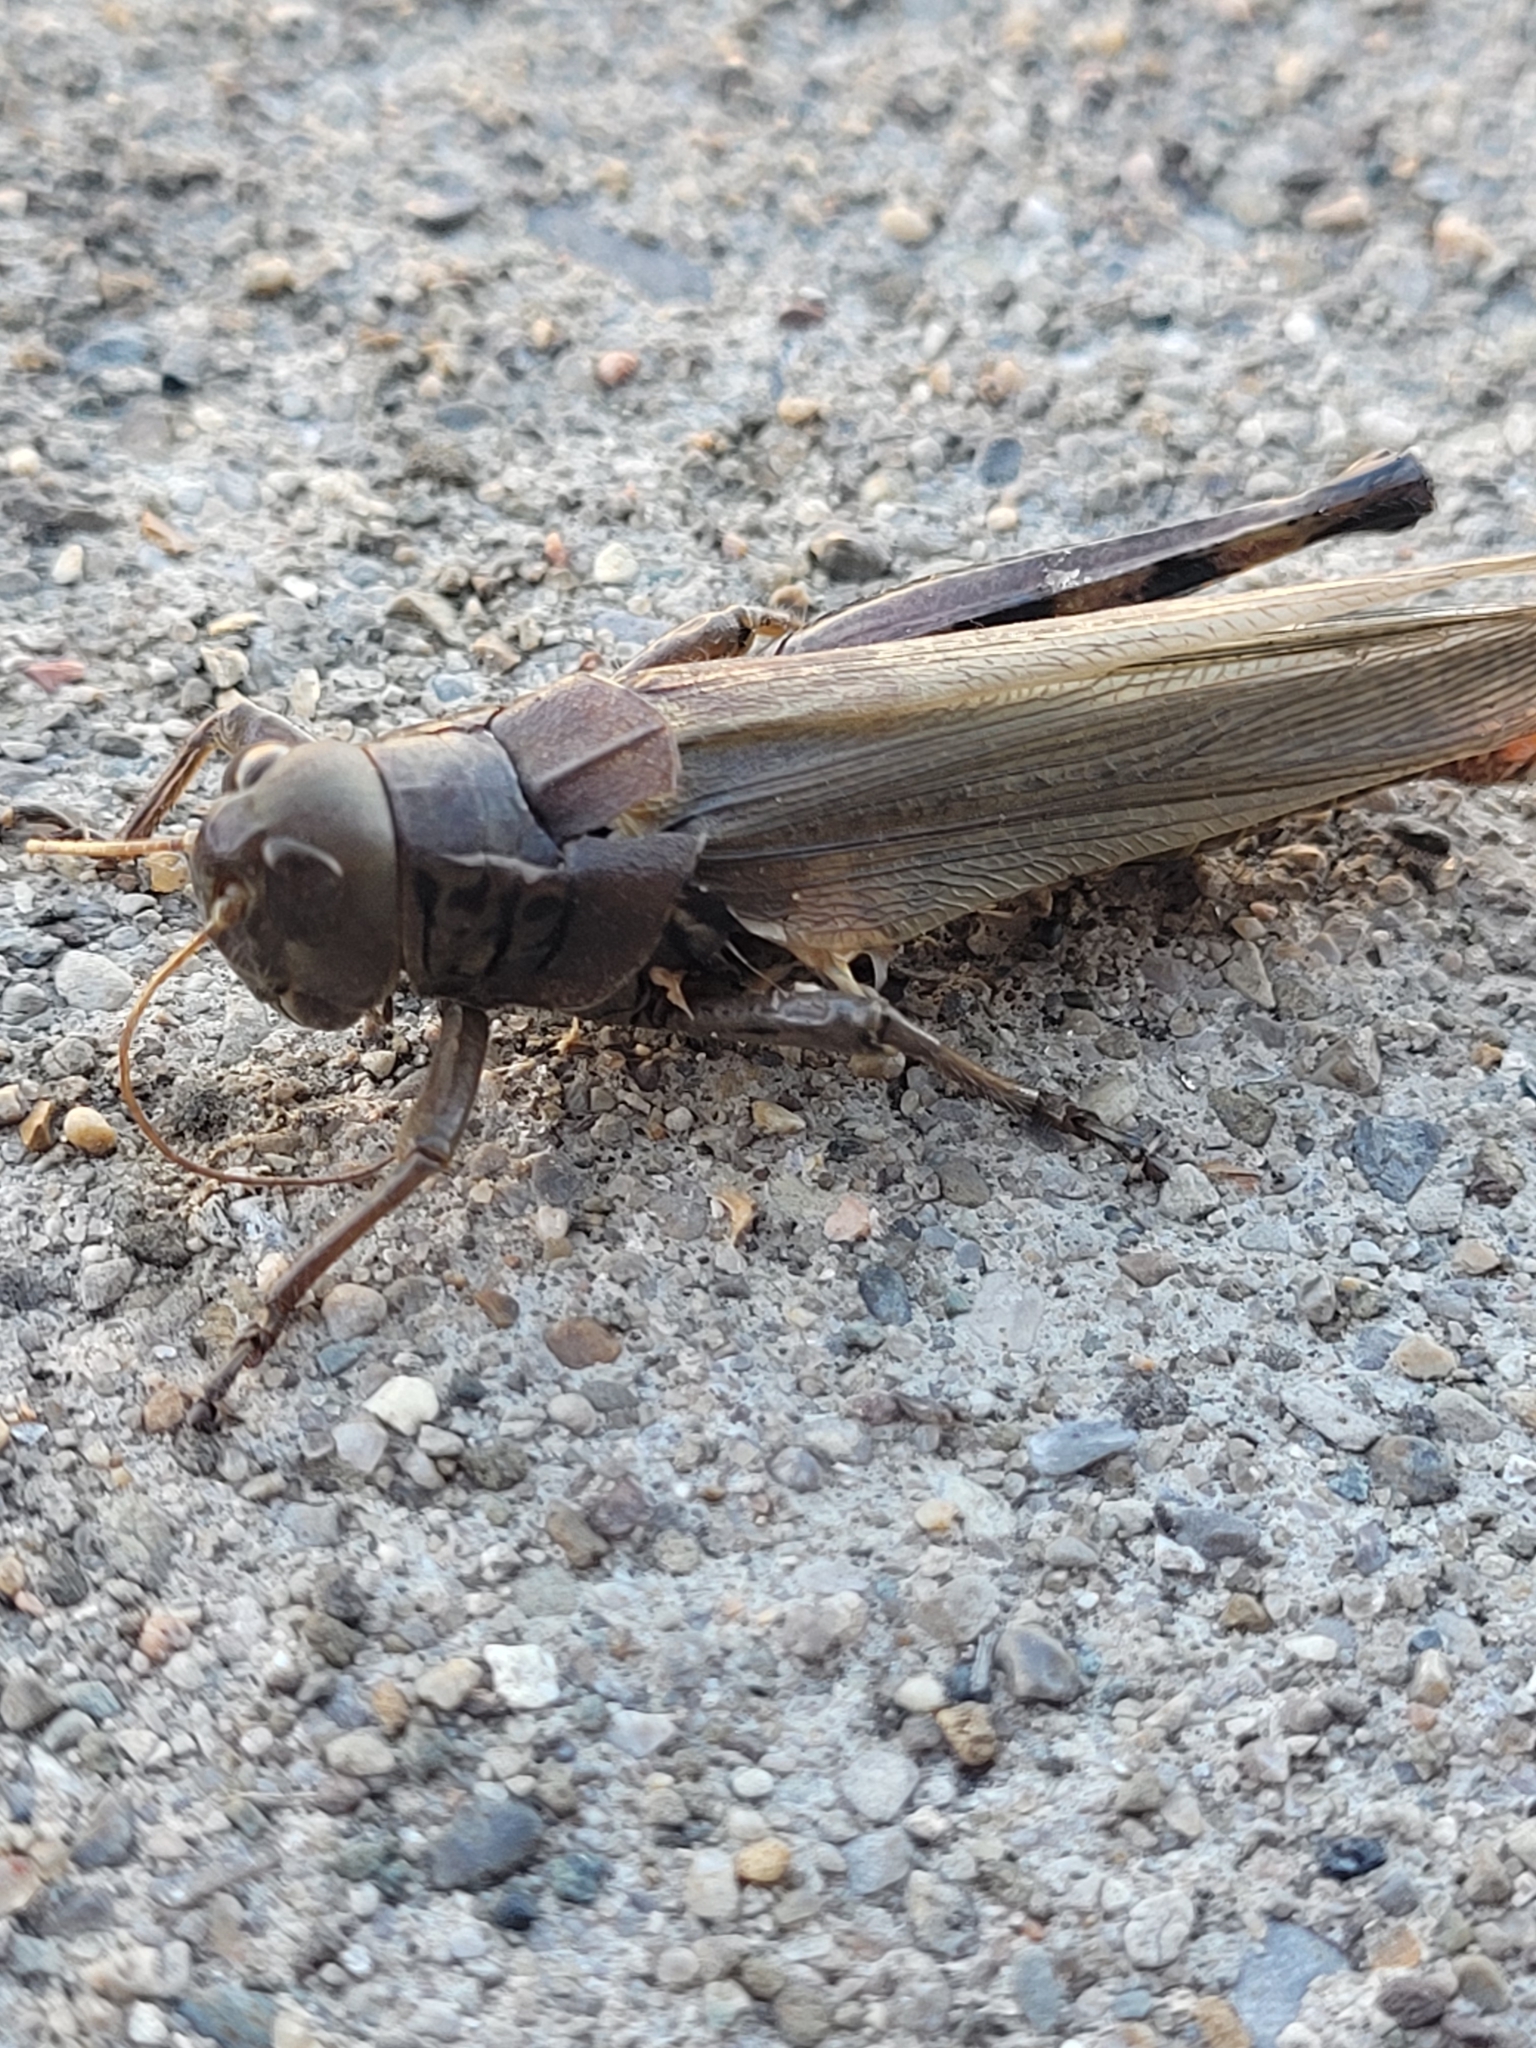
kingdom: Animalia
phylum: Arthropoda
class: Insecta
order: Orthoptera
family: Acrididae
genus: Melanoplus
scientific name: Melanoplus differentialis
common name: Differential grasshopper
